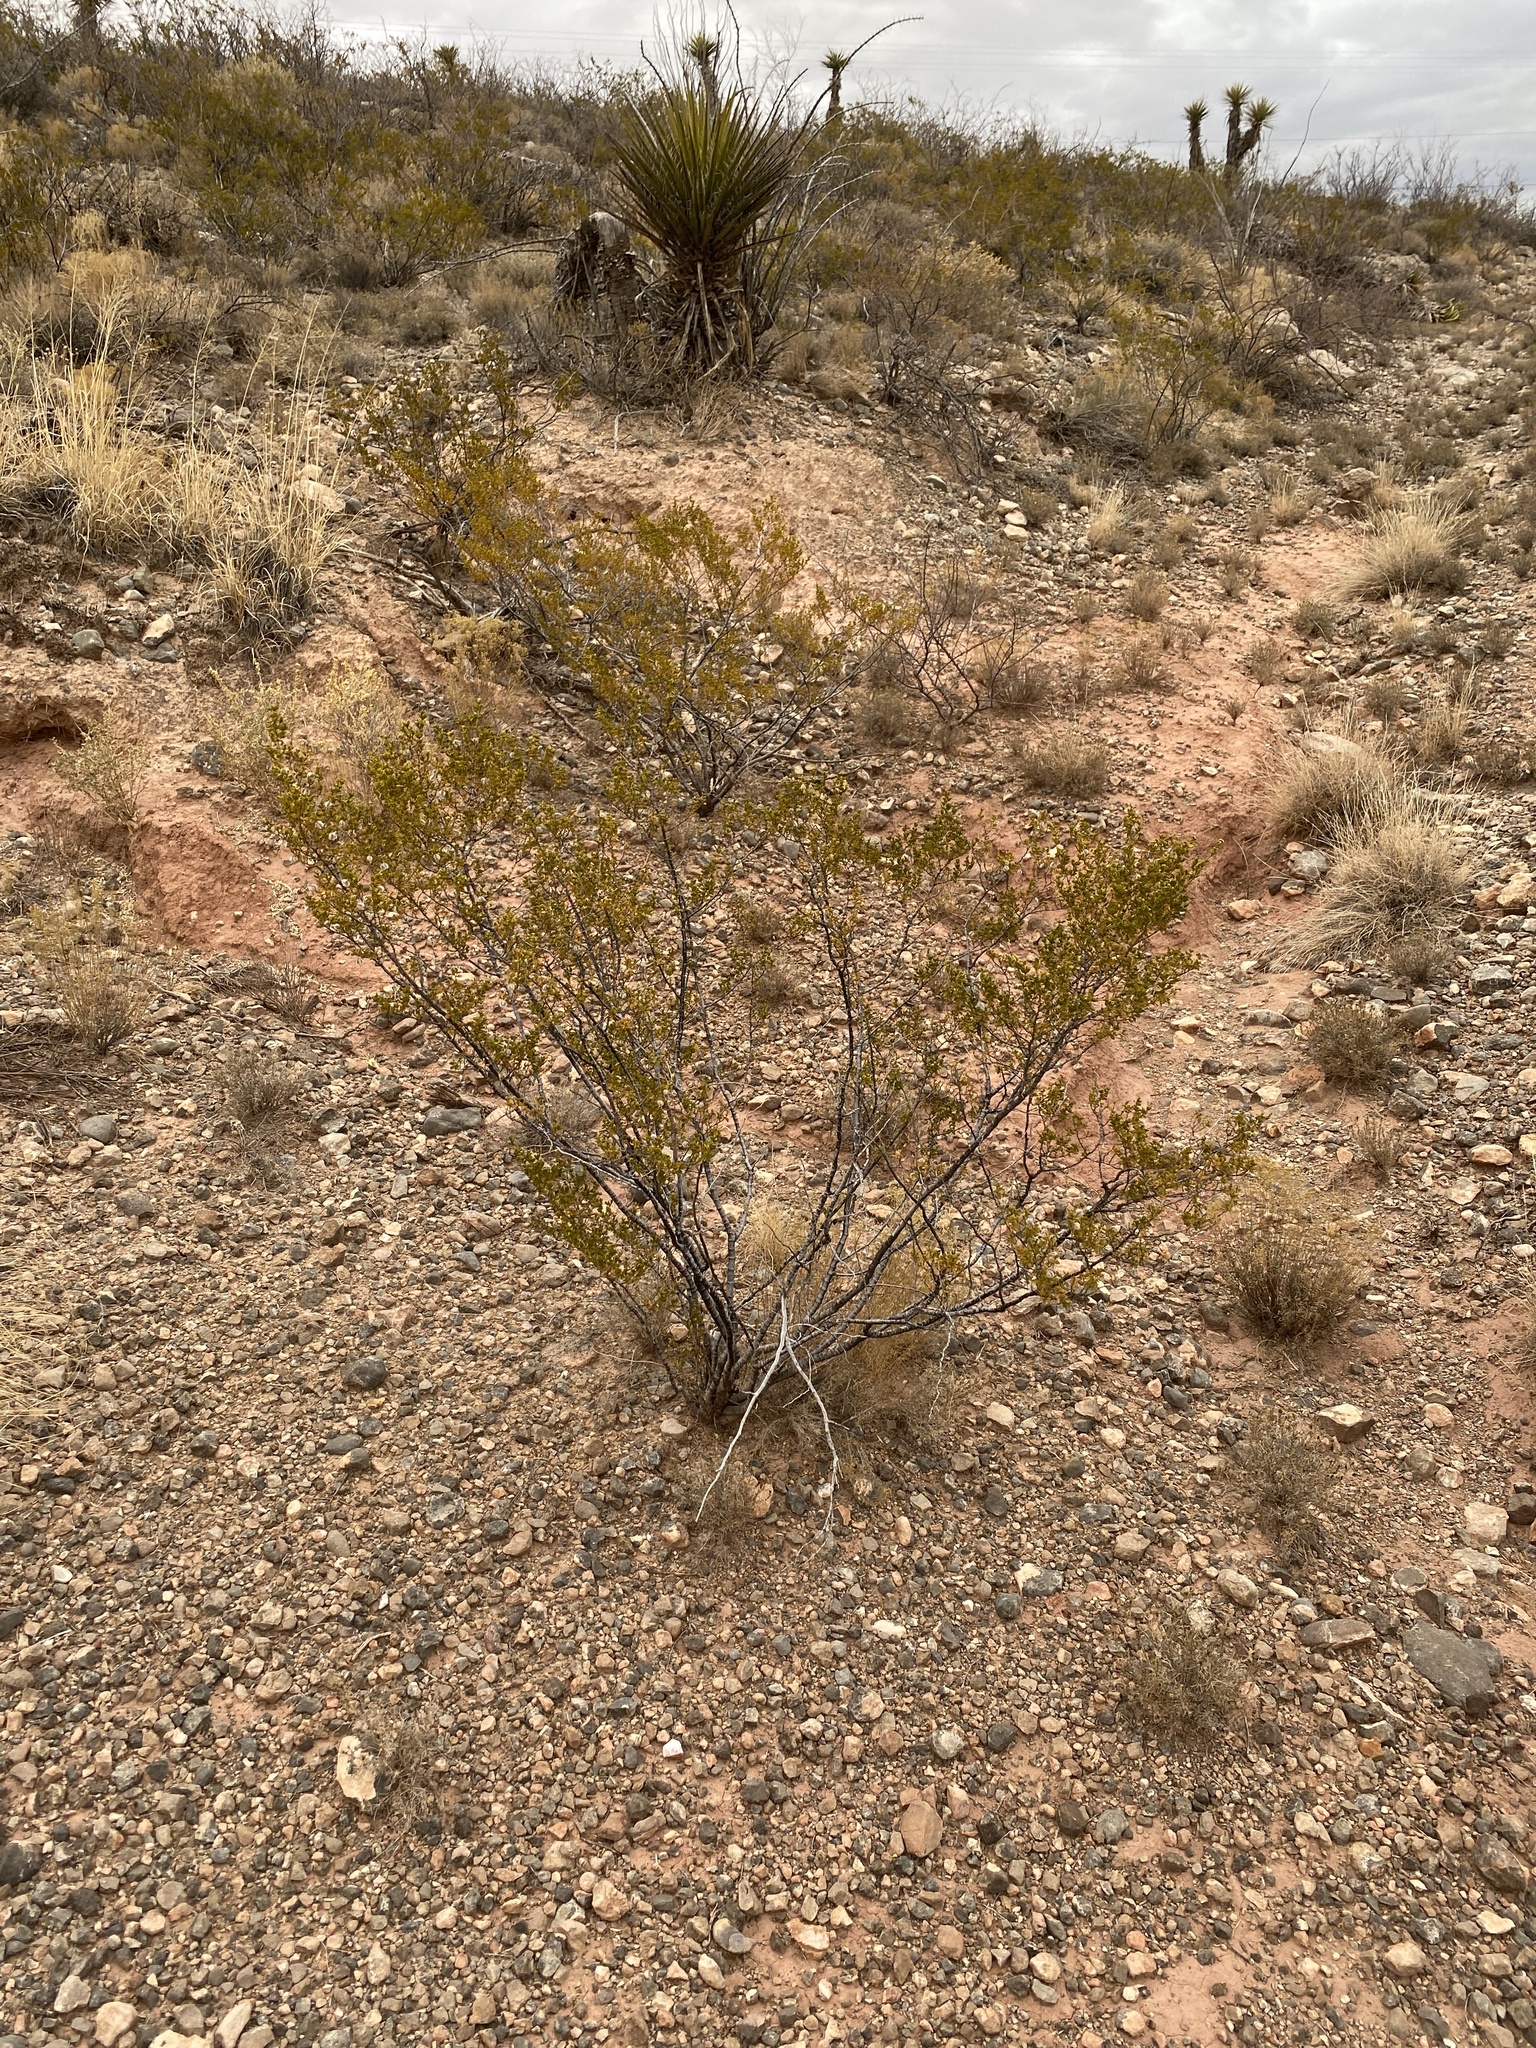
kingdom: Plantae
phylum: Tracheophyta
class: Magnoliopsida
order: Zygophyllales
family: Zygophyllaceae
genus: Larrea
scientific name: Larrea tridentata
